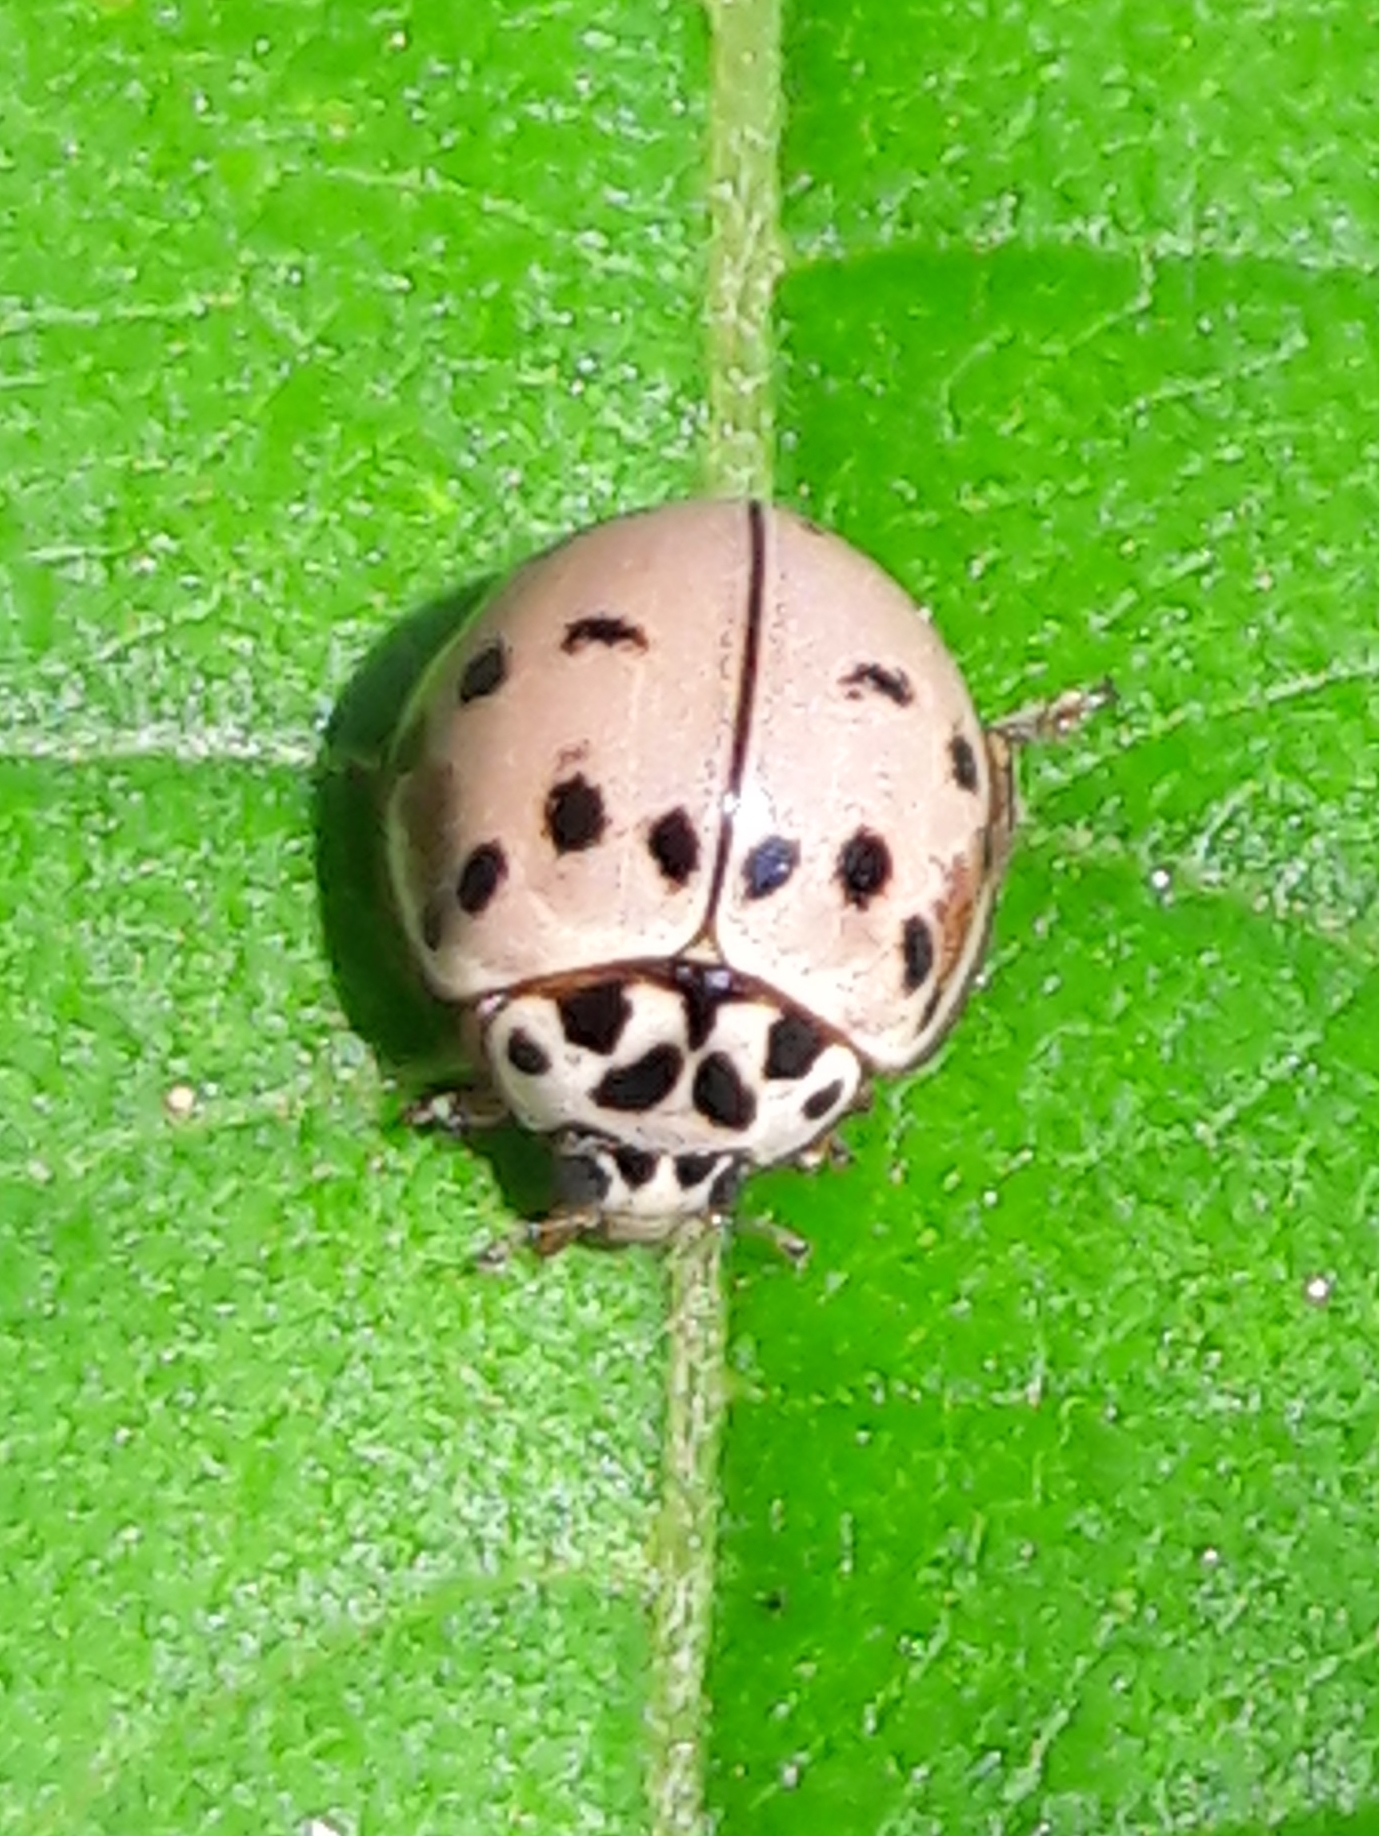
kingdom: Animalia
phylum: Arthropoda
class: Insecta
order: Coleoptera
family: Coccinellidae
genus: Olla
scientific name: Olla v-nigrum
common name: Ashy gray lady beetle
